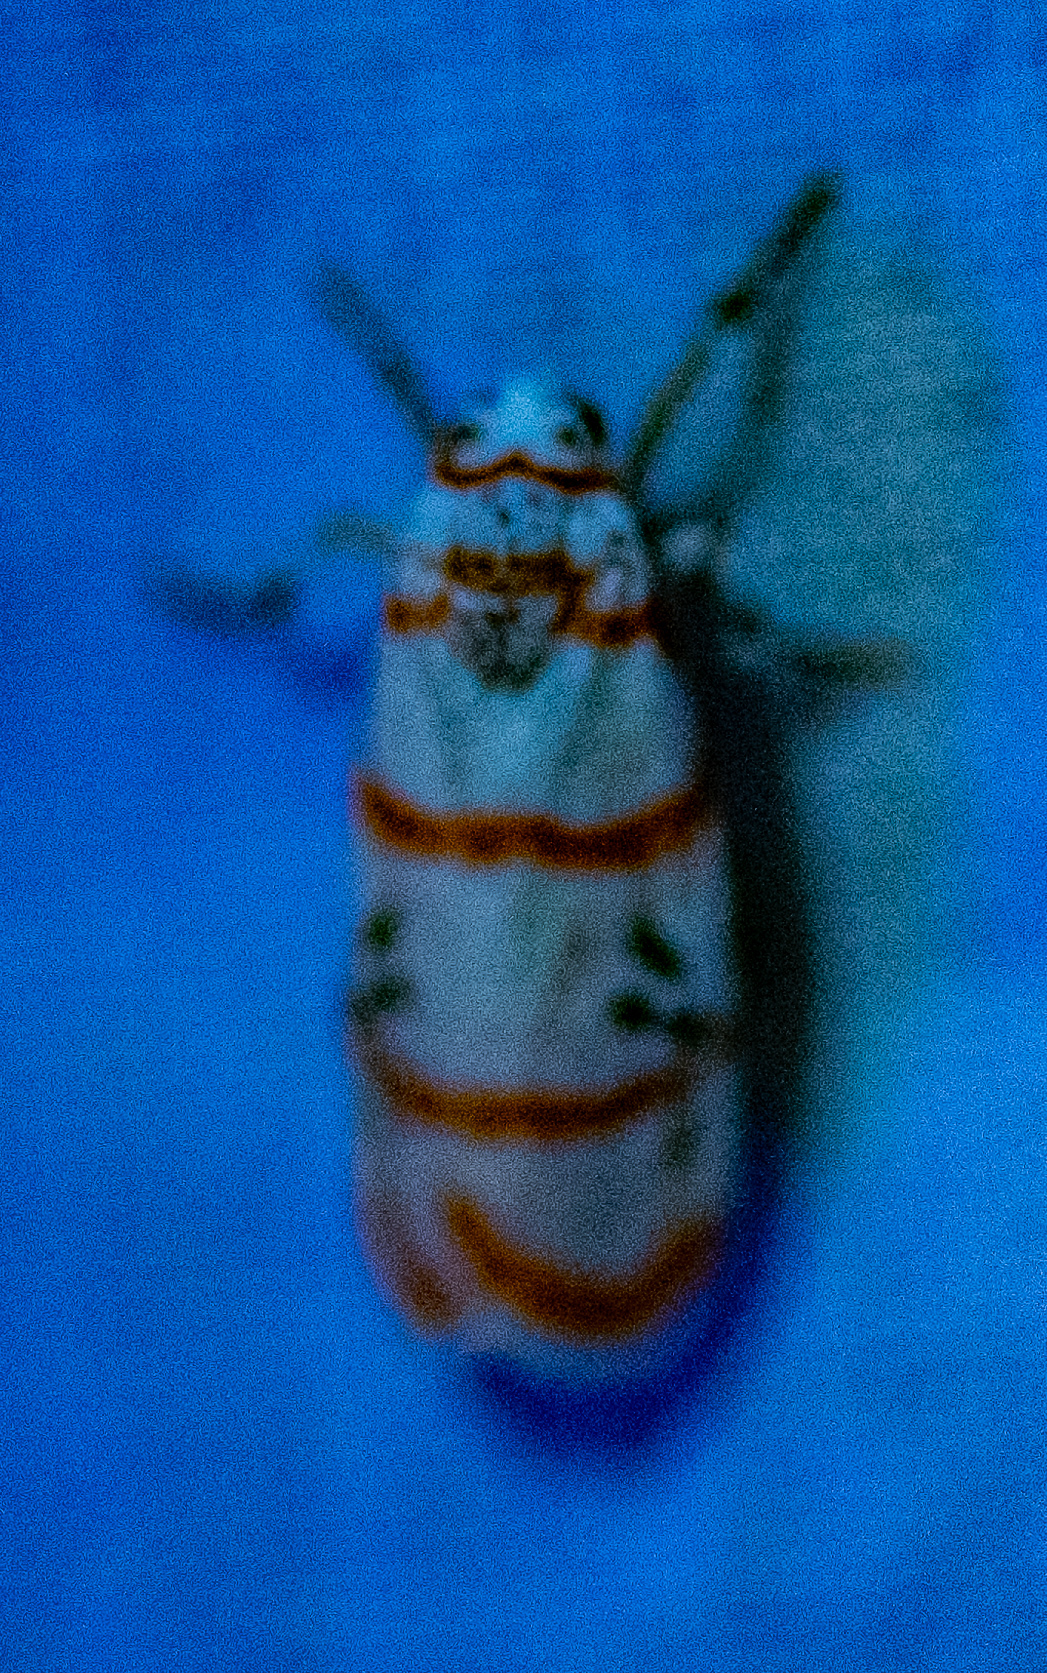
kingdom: Animalia
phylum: Arthropoda
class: Insecta
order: Lepidoptera
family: Erebidae
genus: Cyana
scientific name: Cyana quadrinotata
